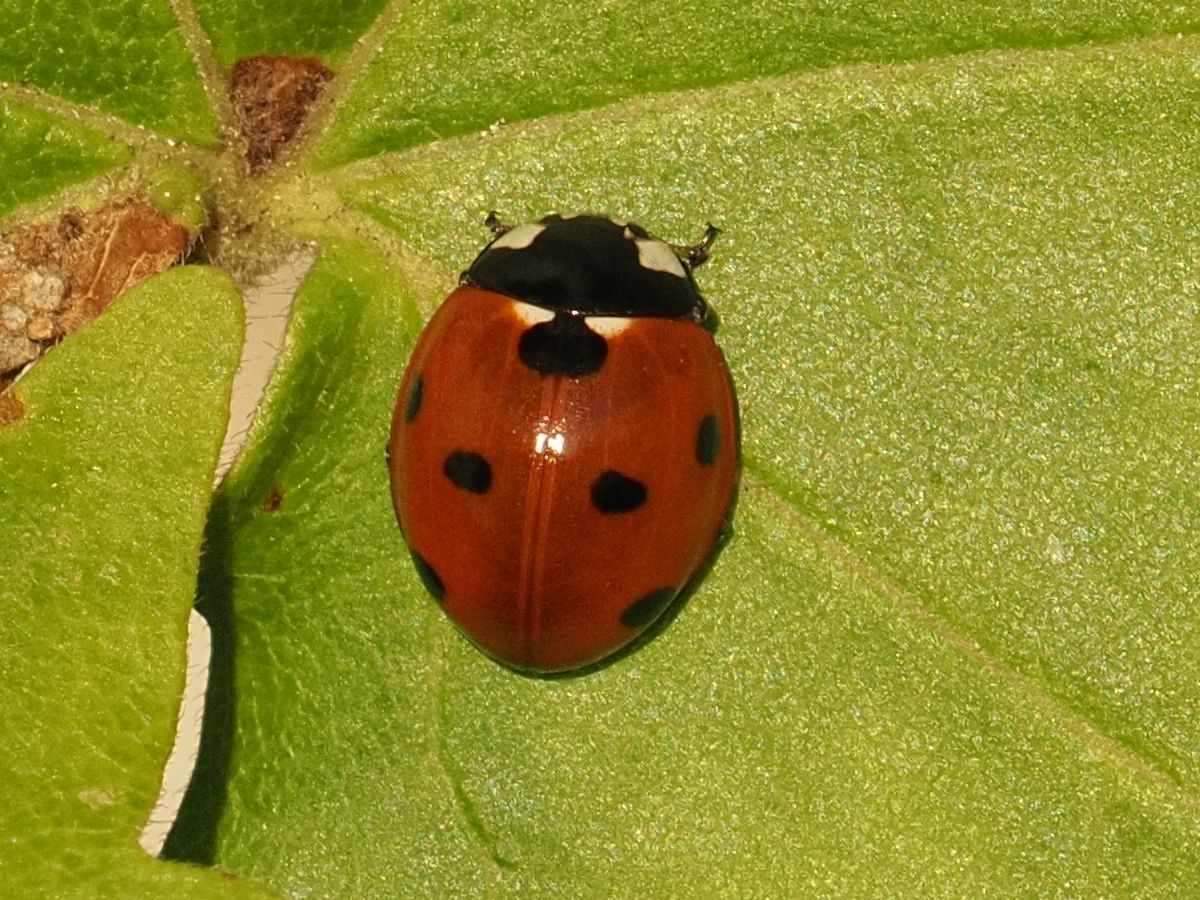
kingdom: Animalia
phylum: Arthropoda
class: Insecta
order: Coleoptera
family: Coccinellidae
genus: Coccinella
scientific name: Coccinella septempunctata
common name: Sevenspotted lady beetle
